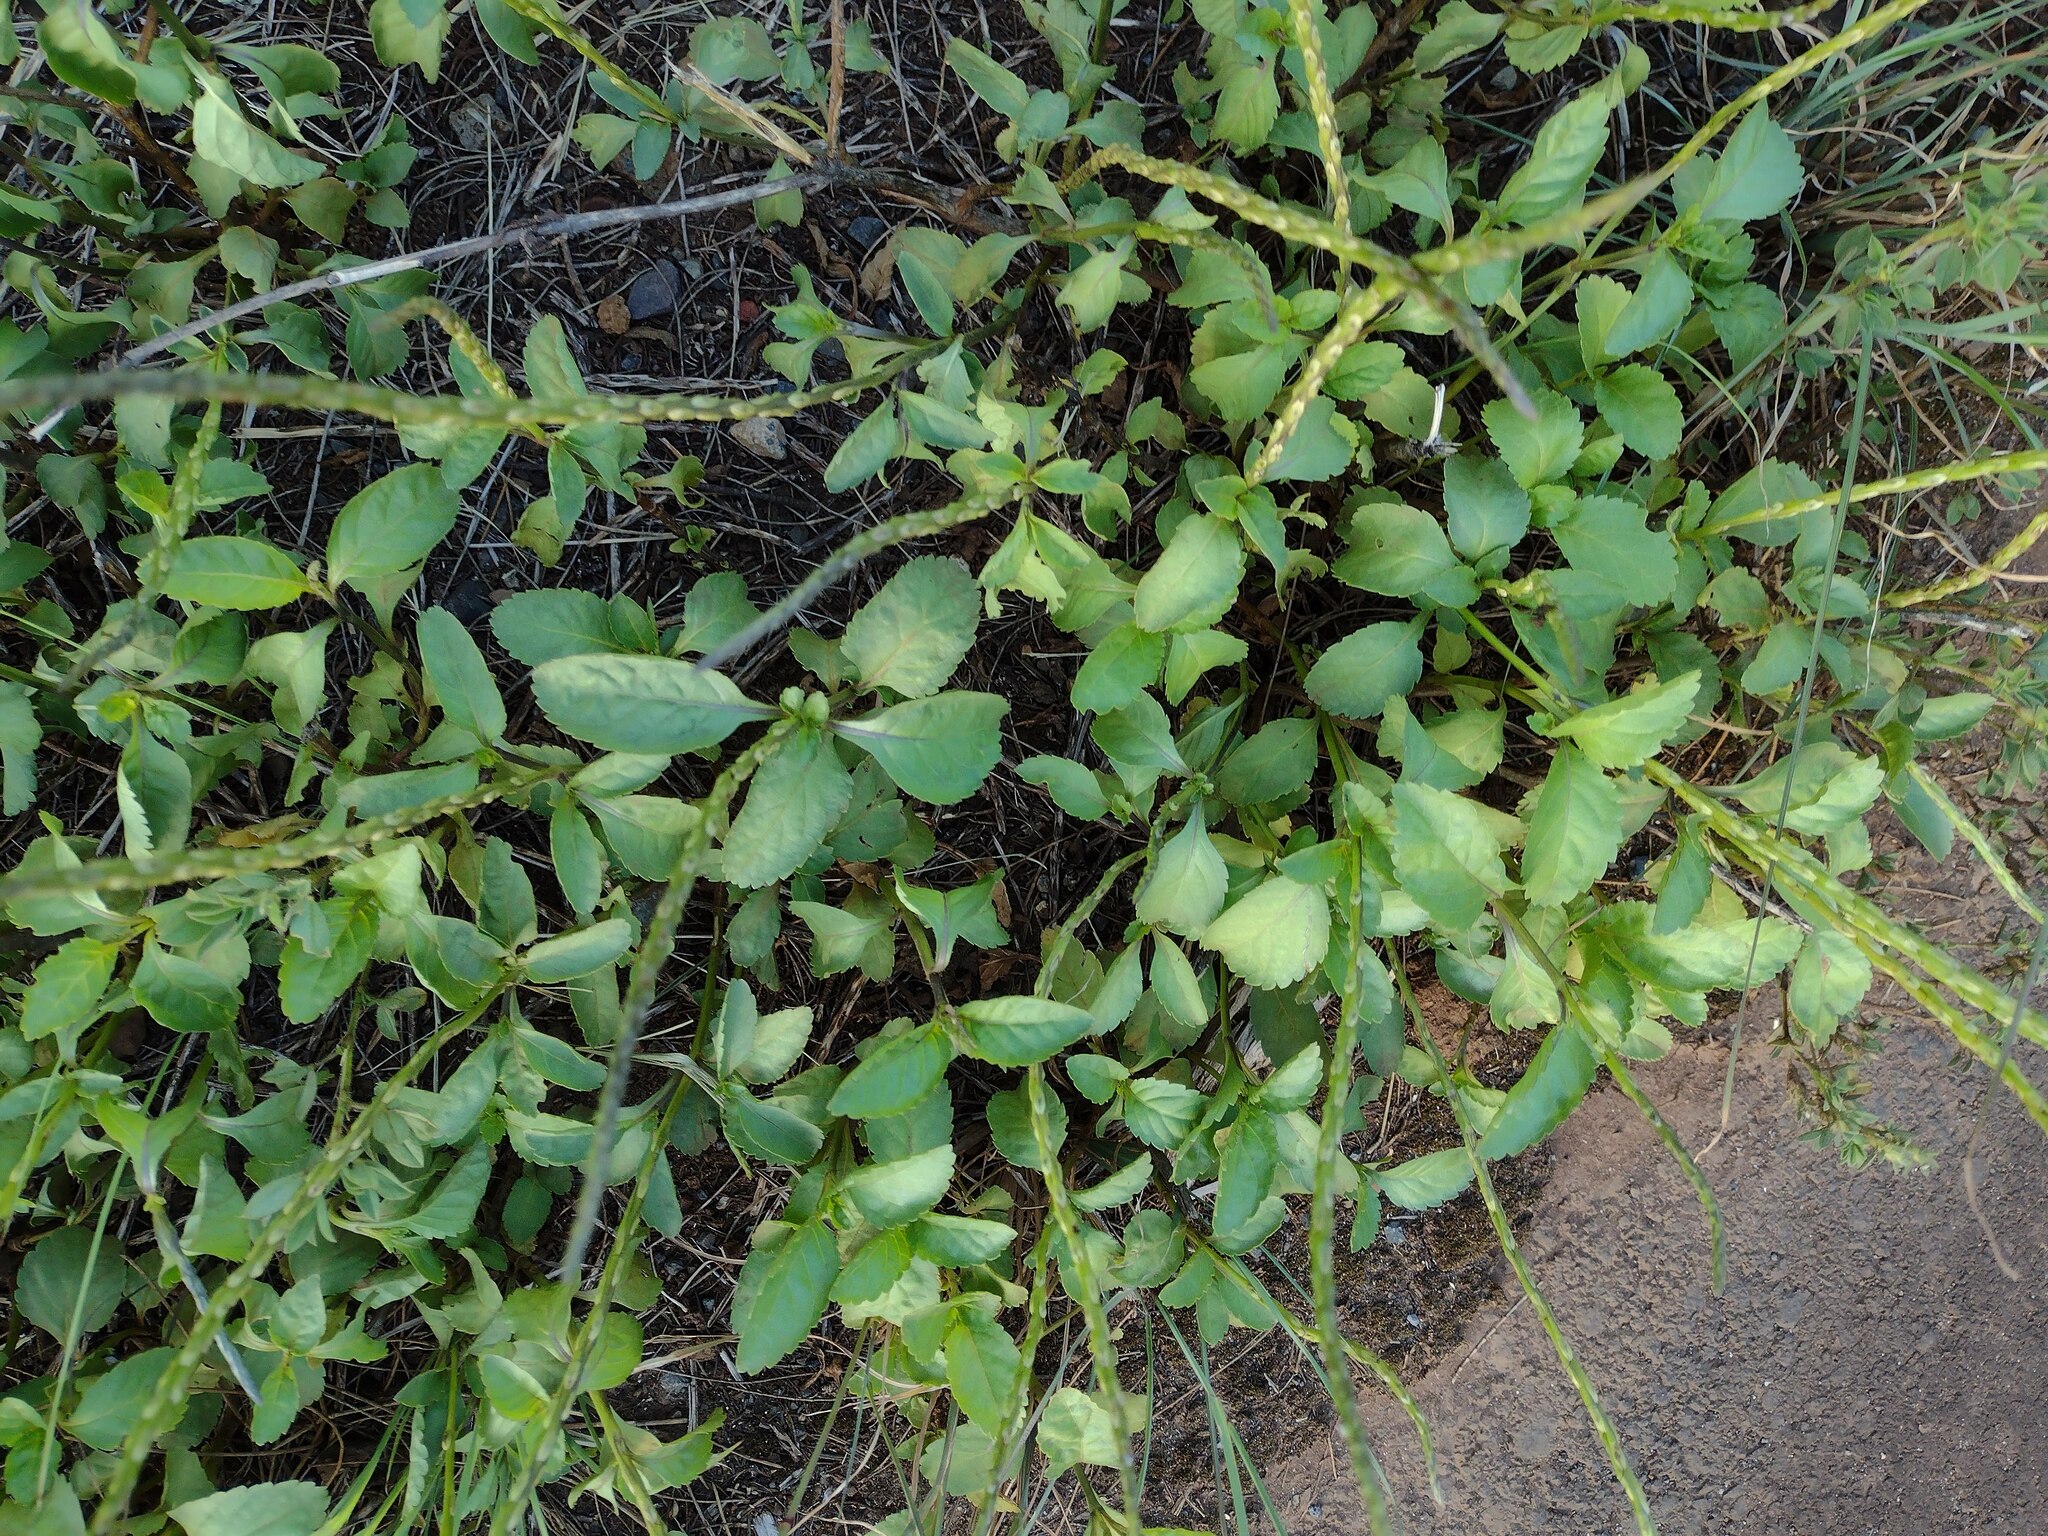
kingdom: Plantae
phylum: Tracheophyta
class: Magnoliopsida
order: Lamiales
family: Verbenaceae
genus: Stachytarpheta
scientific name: Stachytarpheta jamaicensis
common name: Light-blue snakeweed
